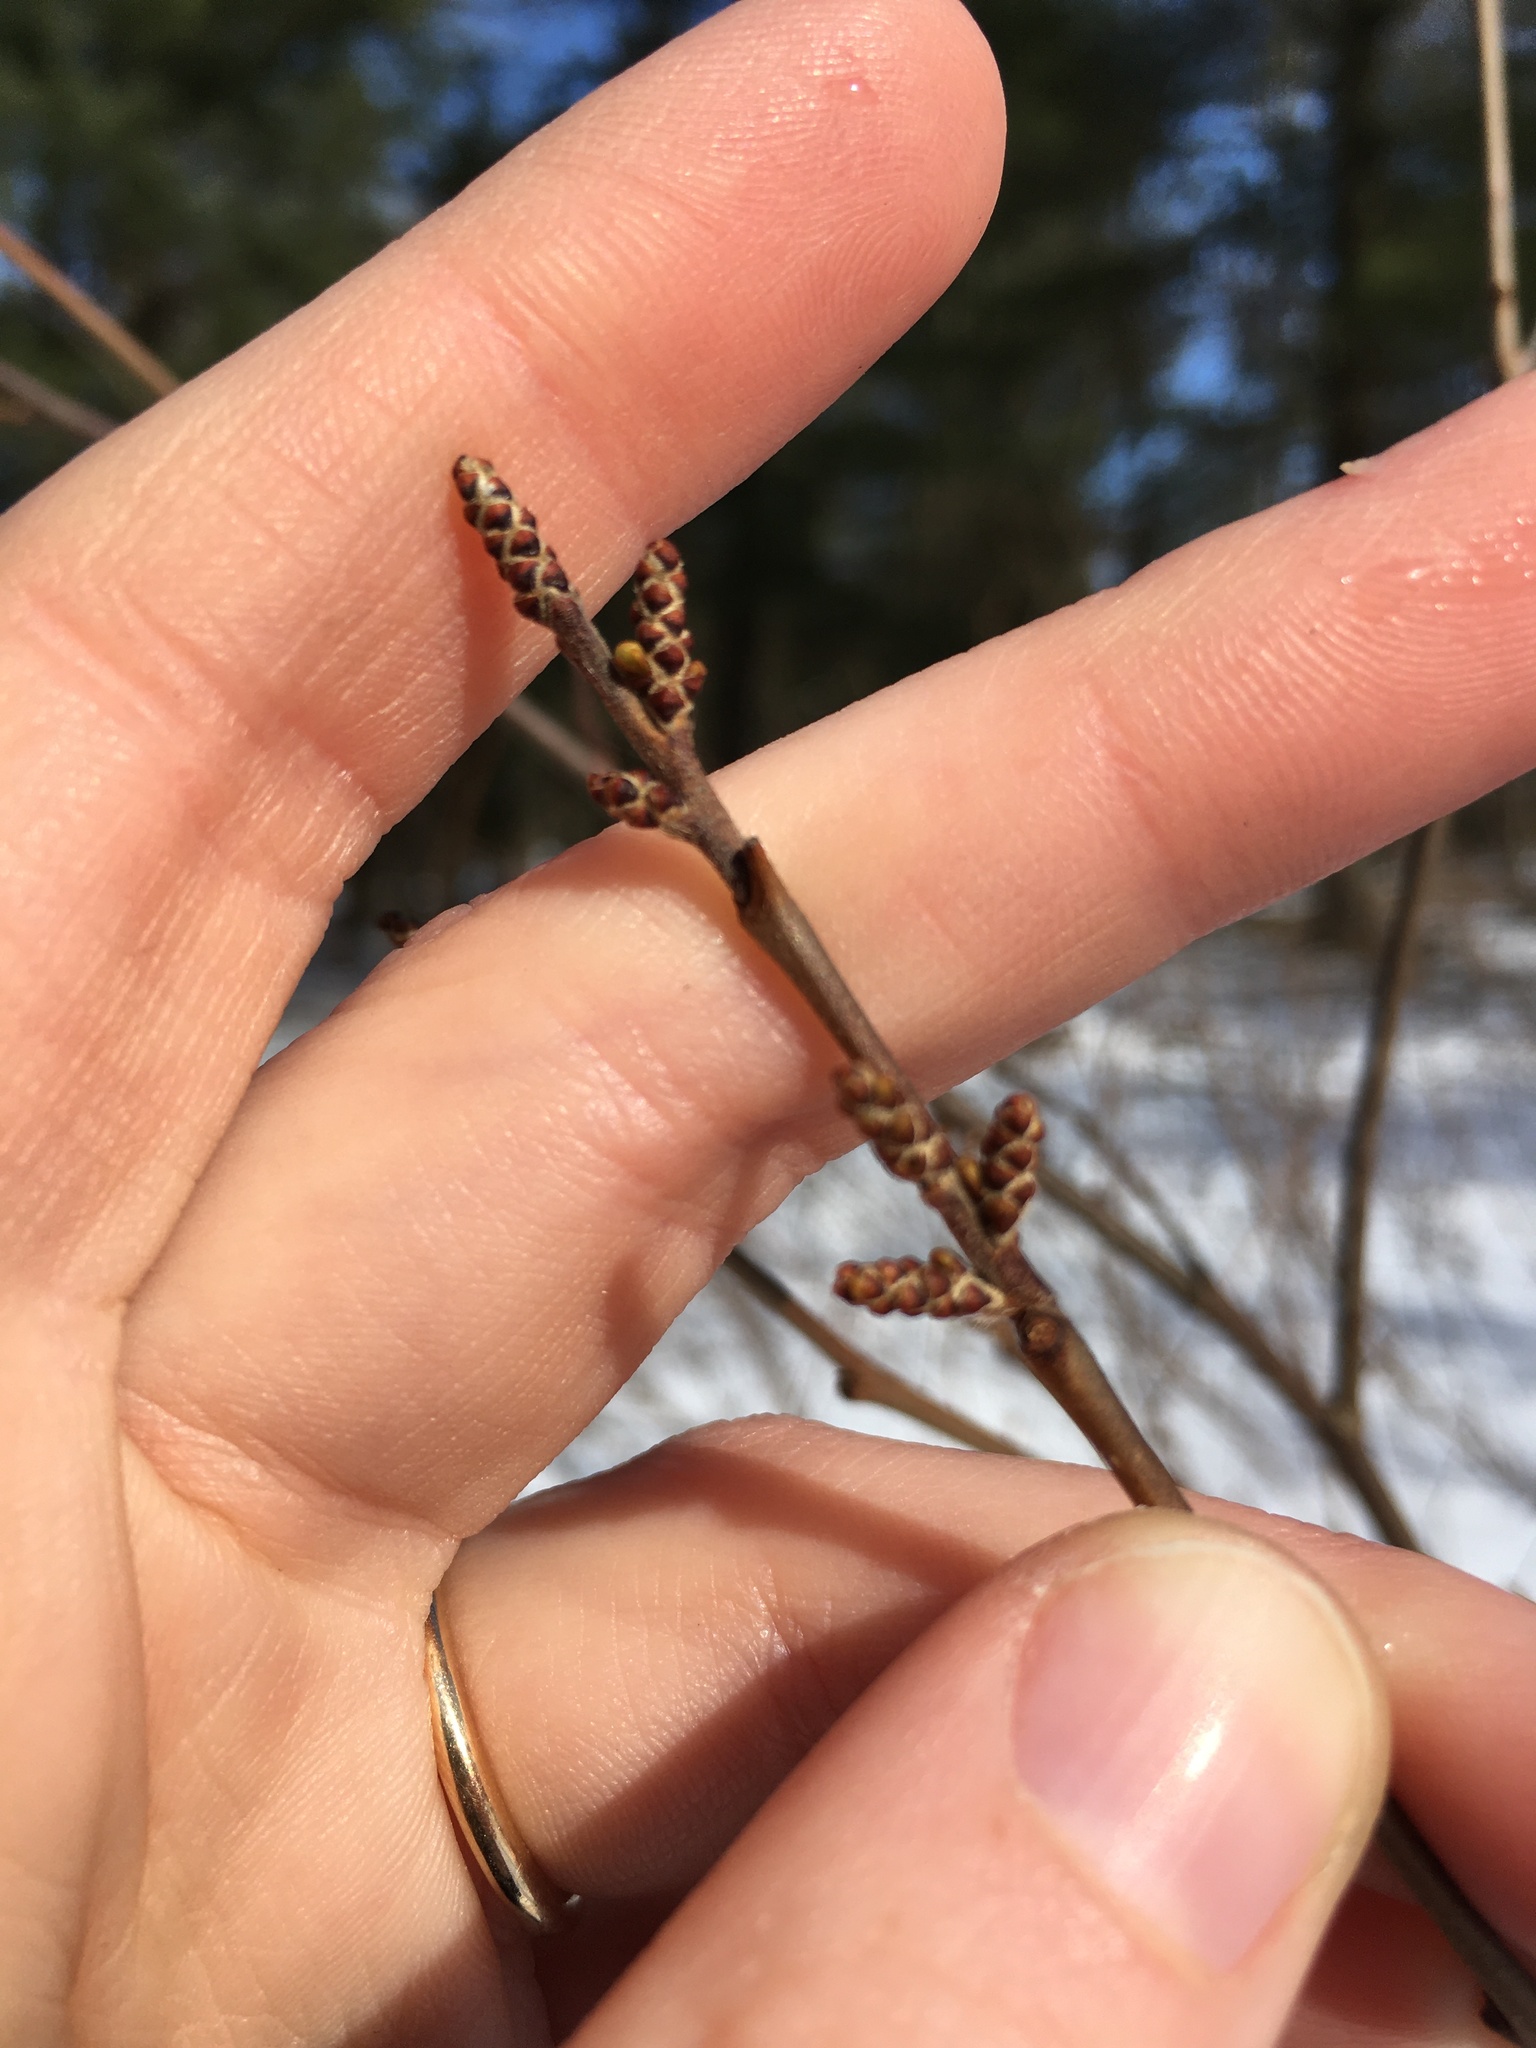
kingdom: Plantae
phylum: Tracheophyta
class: Magnoliopsida
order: Sapindales
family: Anacardiaceae
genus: Rhus
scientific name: Rhus aromatica
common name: Aromatic sumac
